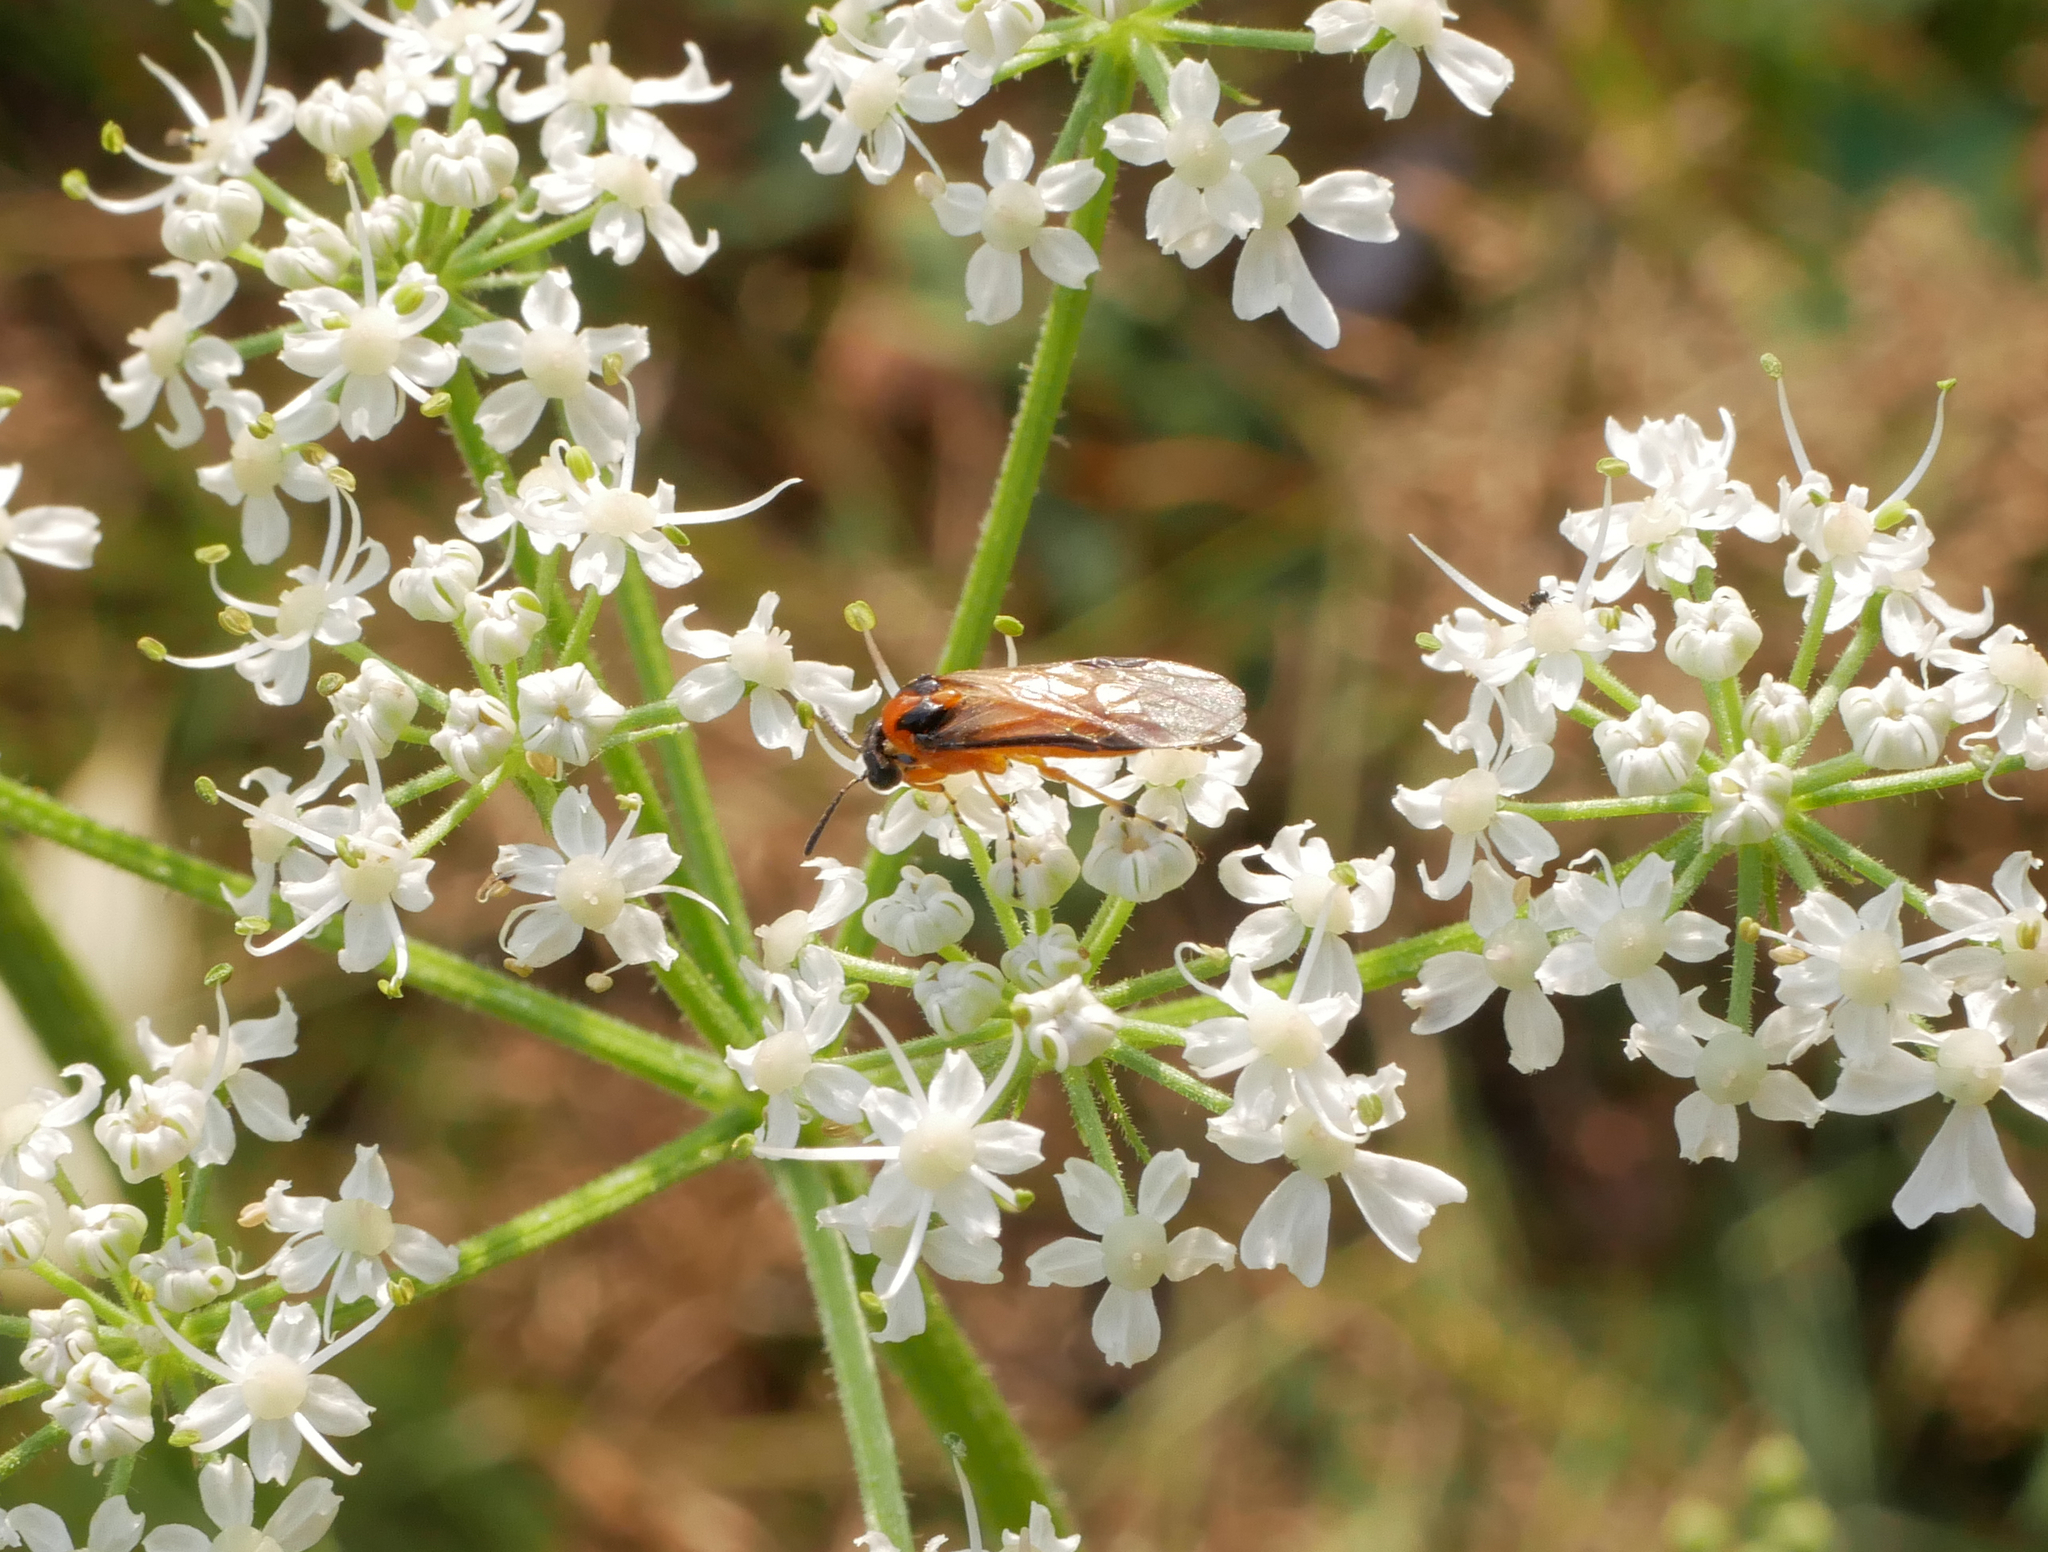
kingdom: Animalia
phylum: Arthropoda
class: Insecta
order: Hymenoptera
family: Tenthredinidae
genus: Athalia
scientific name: Athalia rosae
